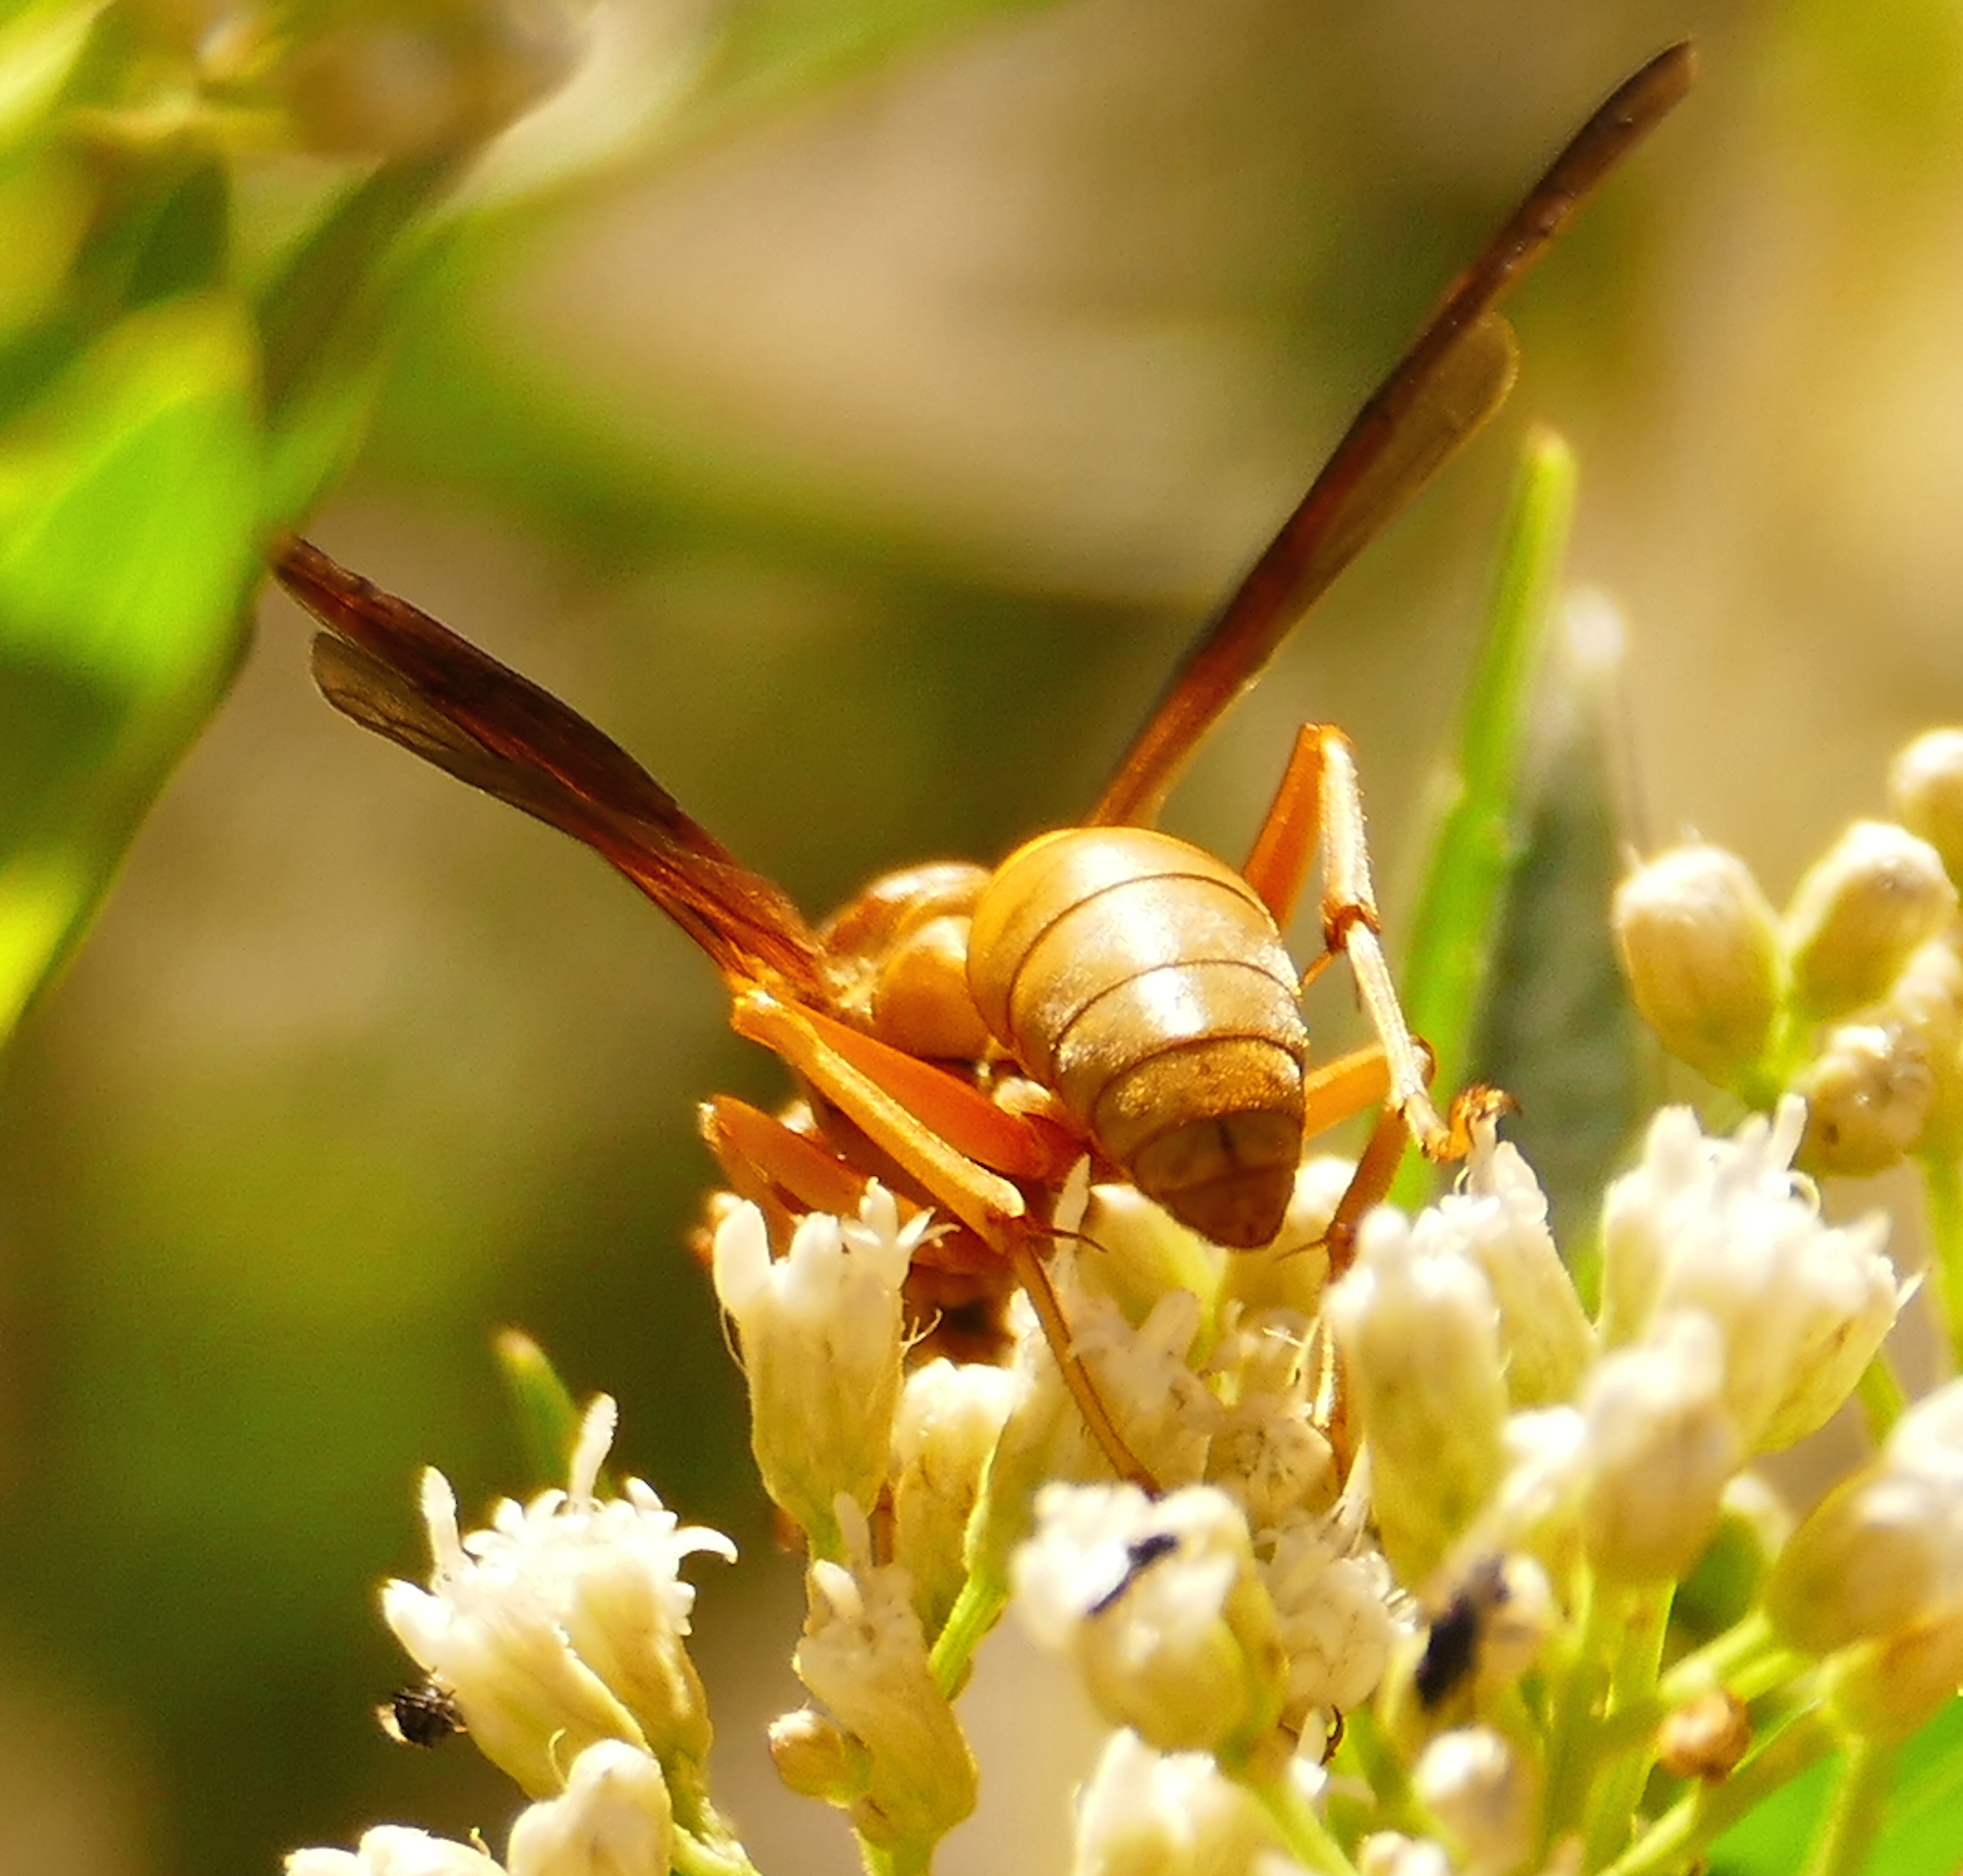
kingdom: Animalia
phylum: Arthropoda
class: Insecta
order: Hymenoptera
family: Eumenidae
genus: Polistes
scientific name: Polistes flavus
